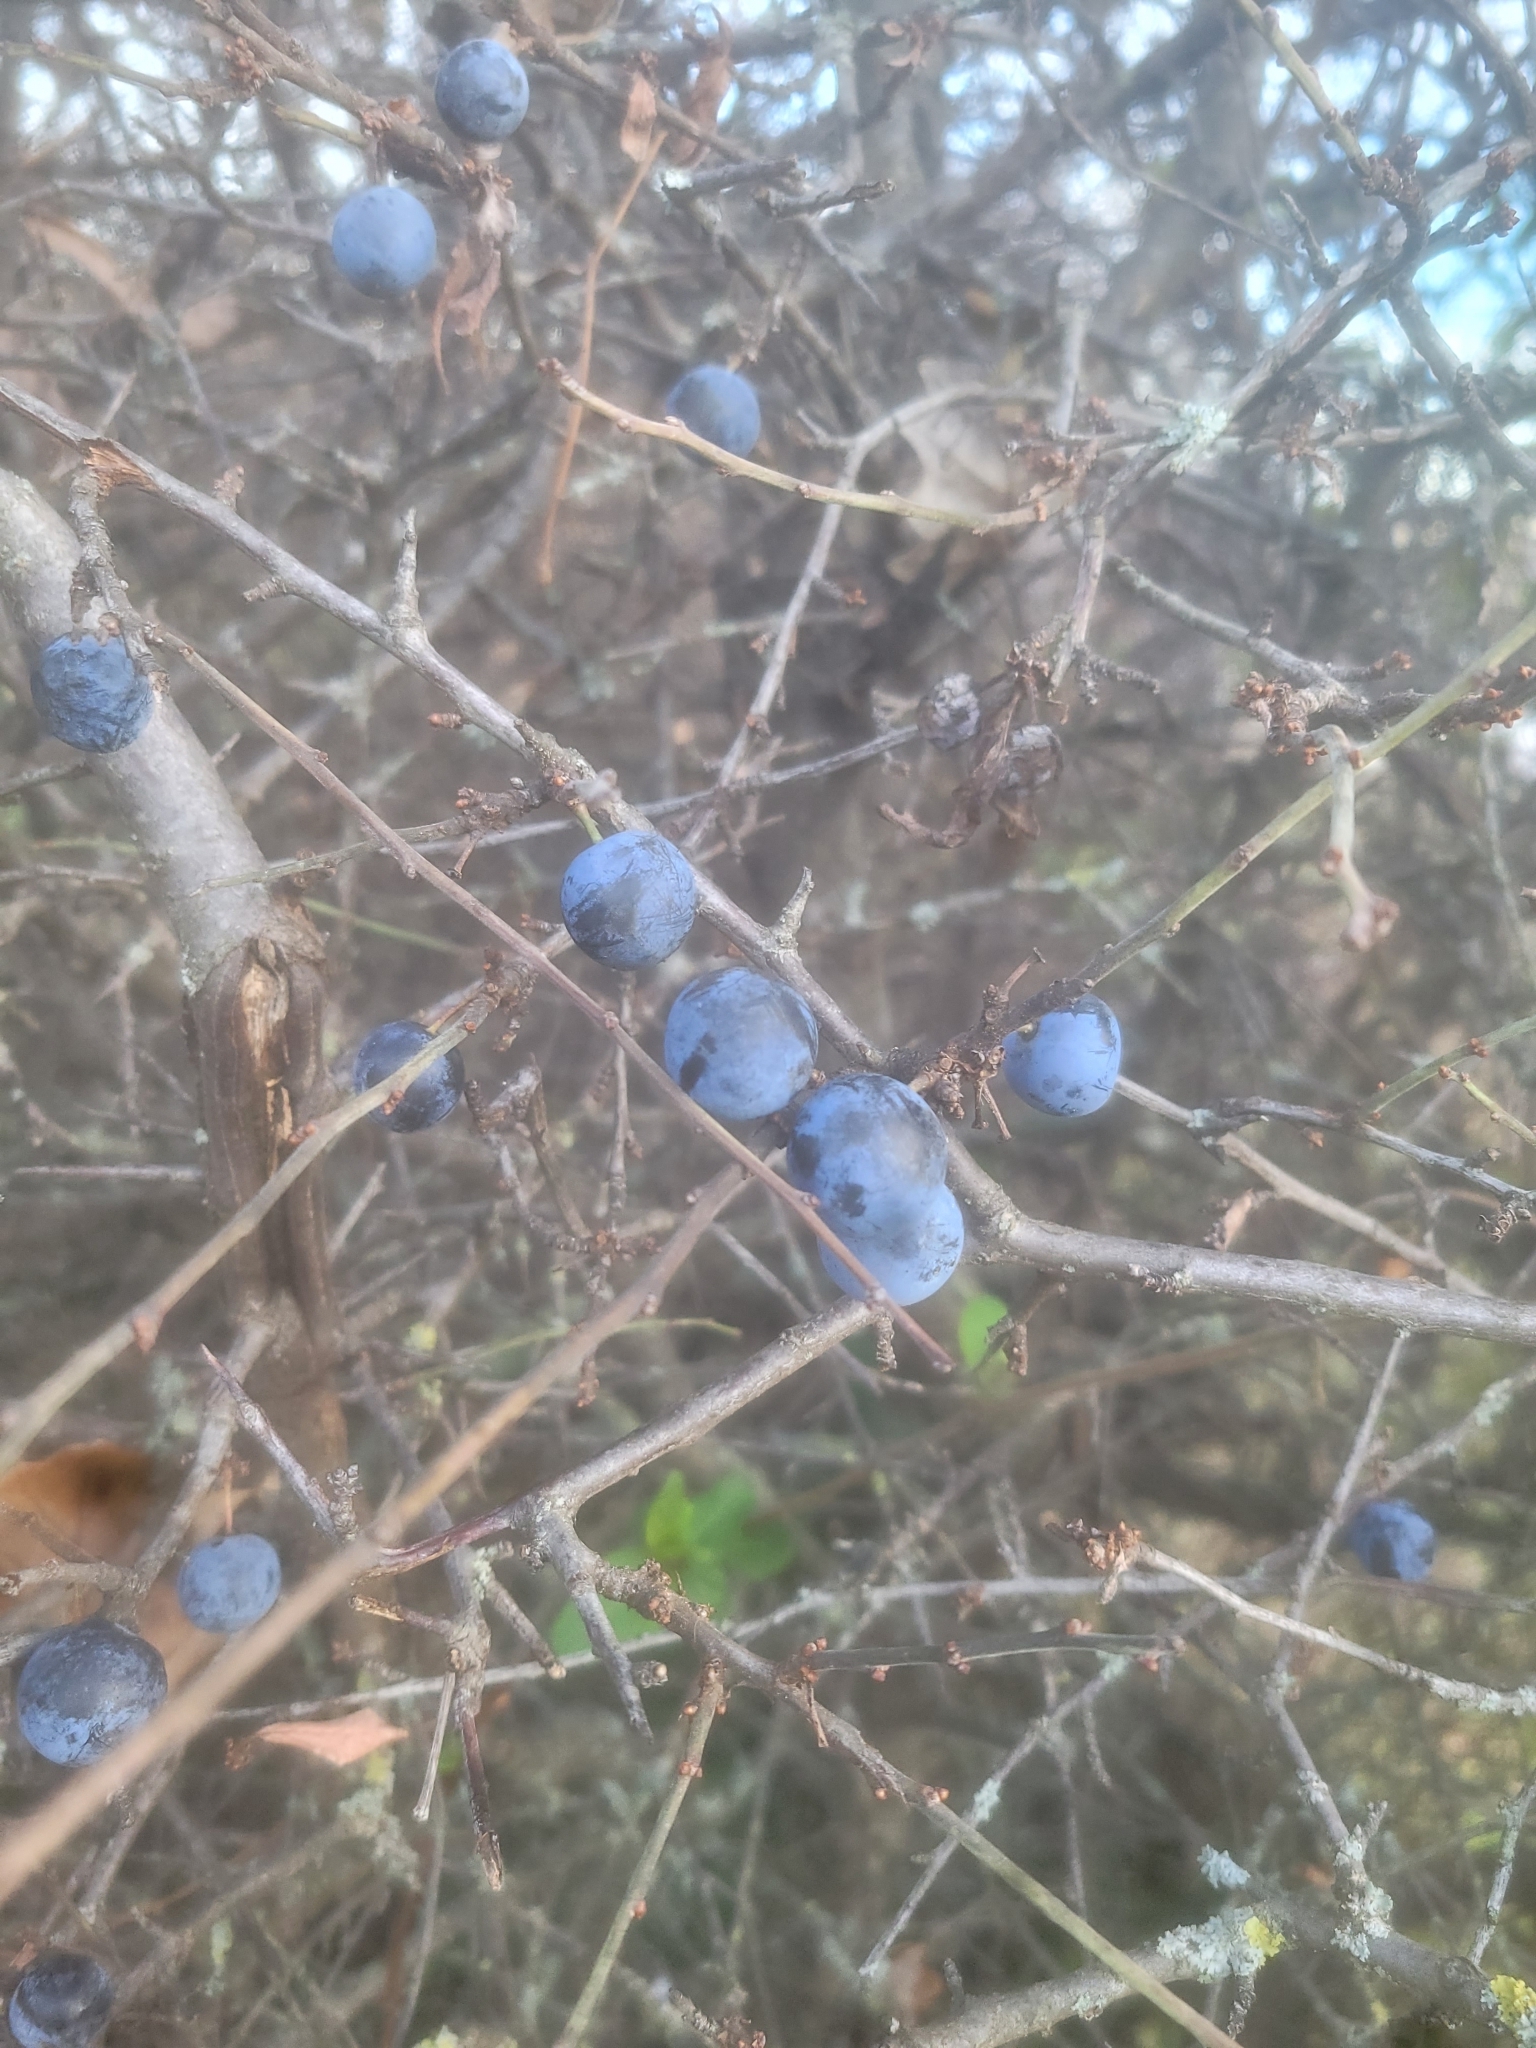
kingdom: Plantae
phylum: Tracheophyta
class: Magnoliopsida
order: Rosales
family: Rosaceae
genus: Prunus
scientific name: Prunus spinosa
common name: Blackthorn
